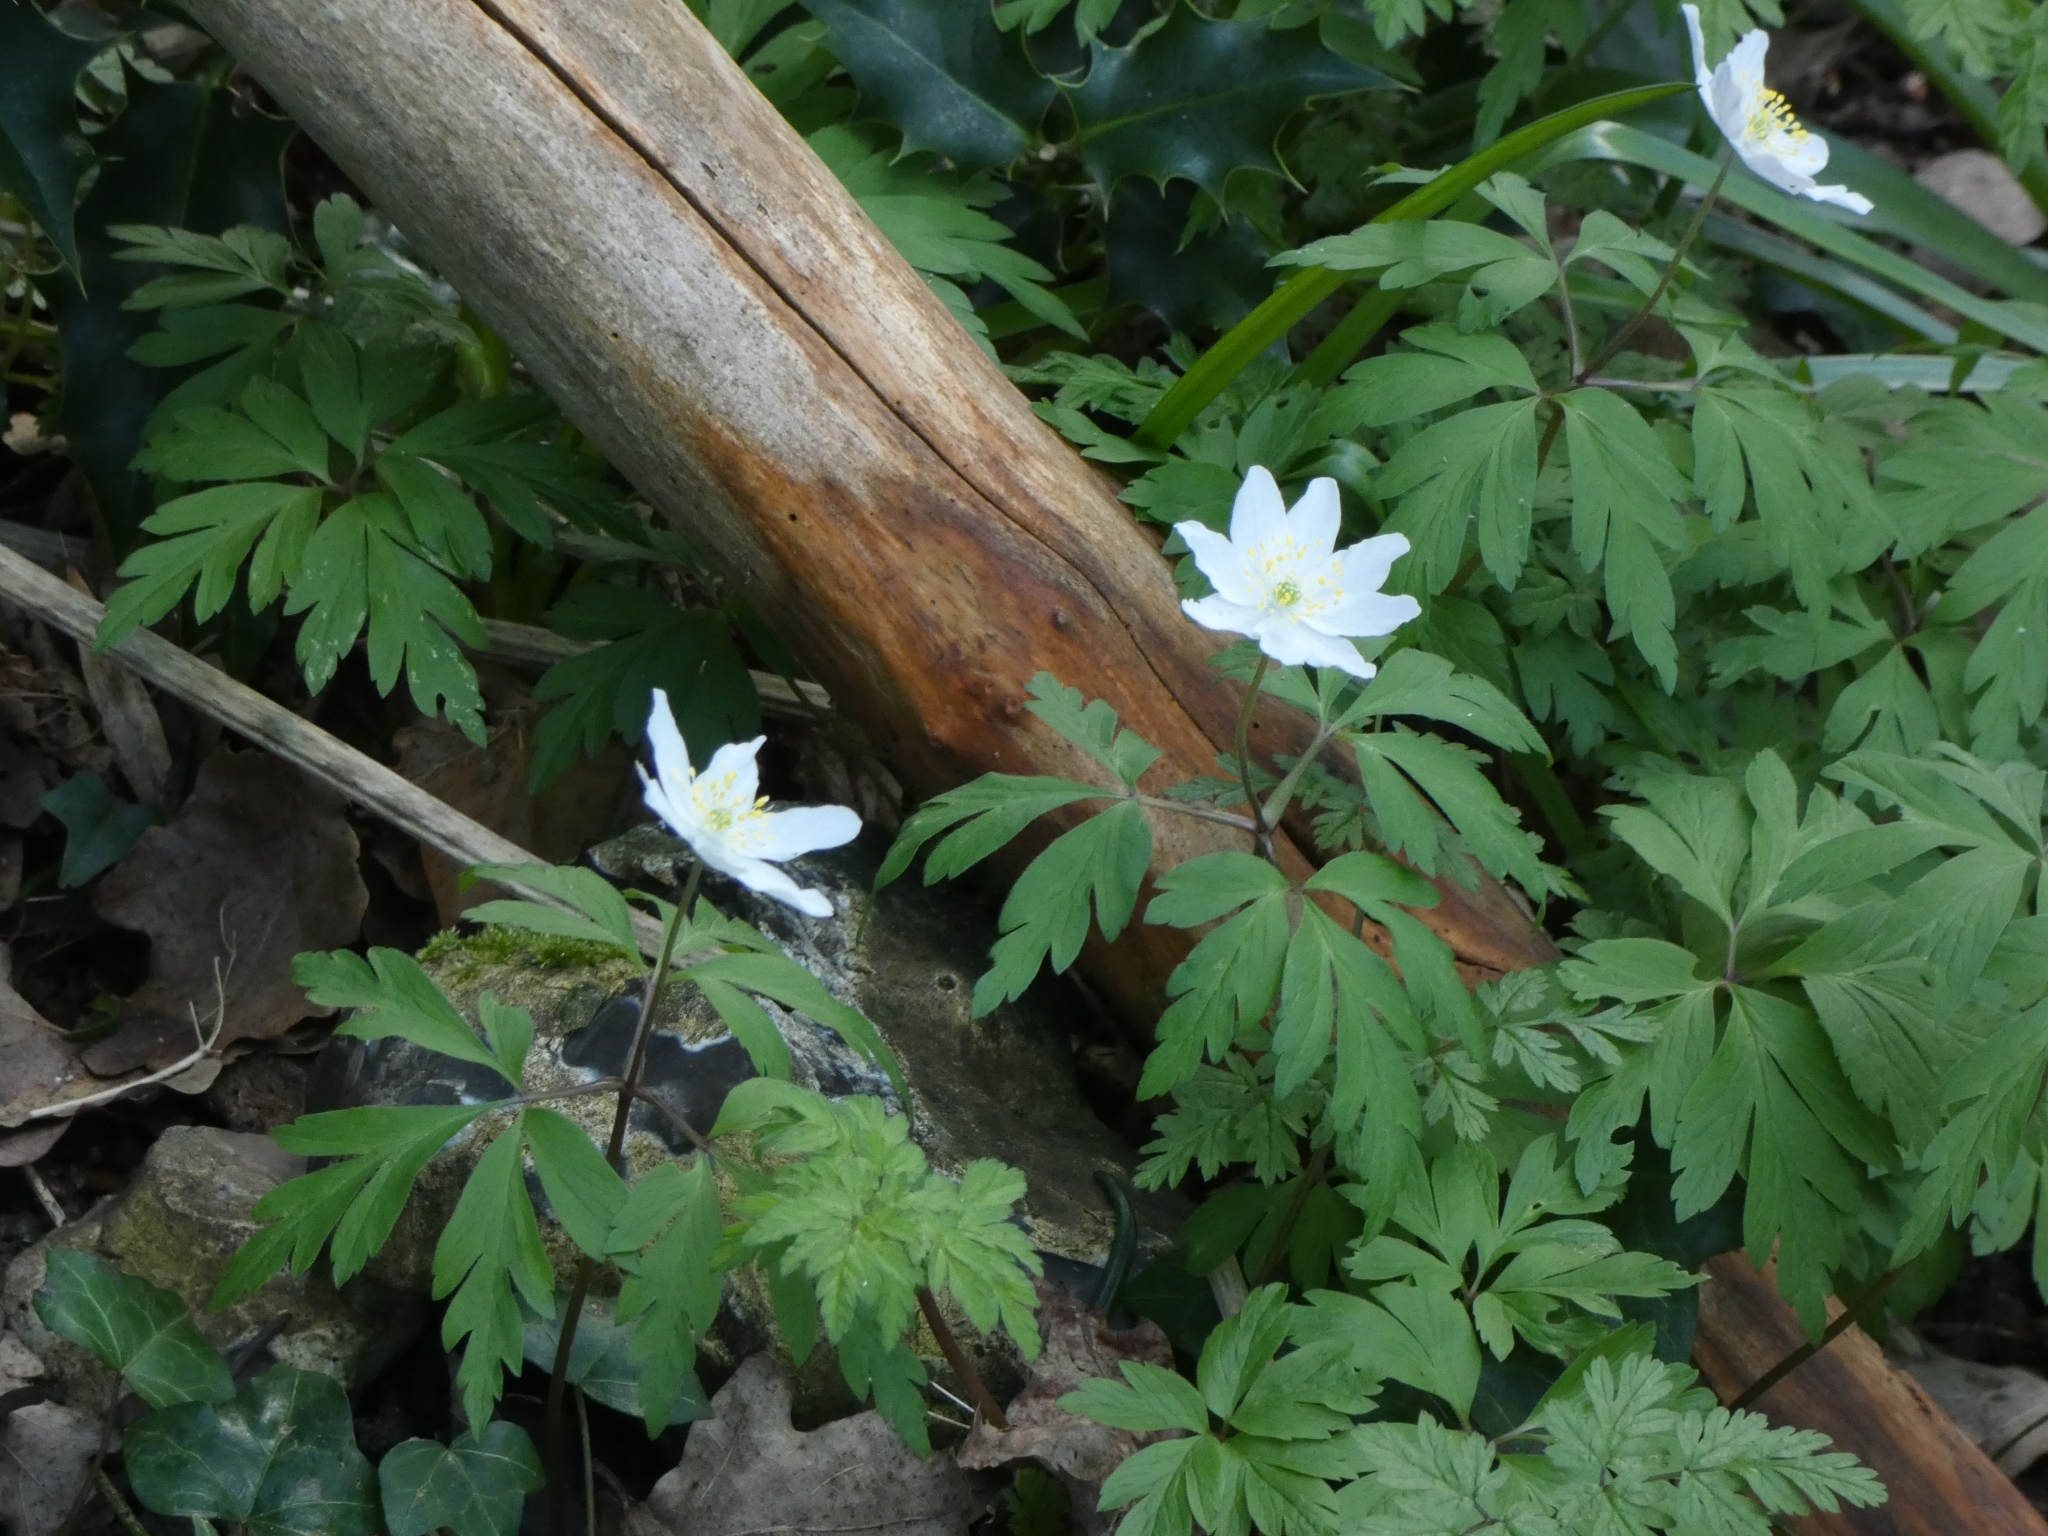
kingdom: Plantae
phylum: Tracheophyta
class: Magnoliopsida
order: Ranunculales
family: Ranunculaceae
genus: Anemone
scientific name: Anemone nemorosa
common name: Wood anemone
